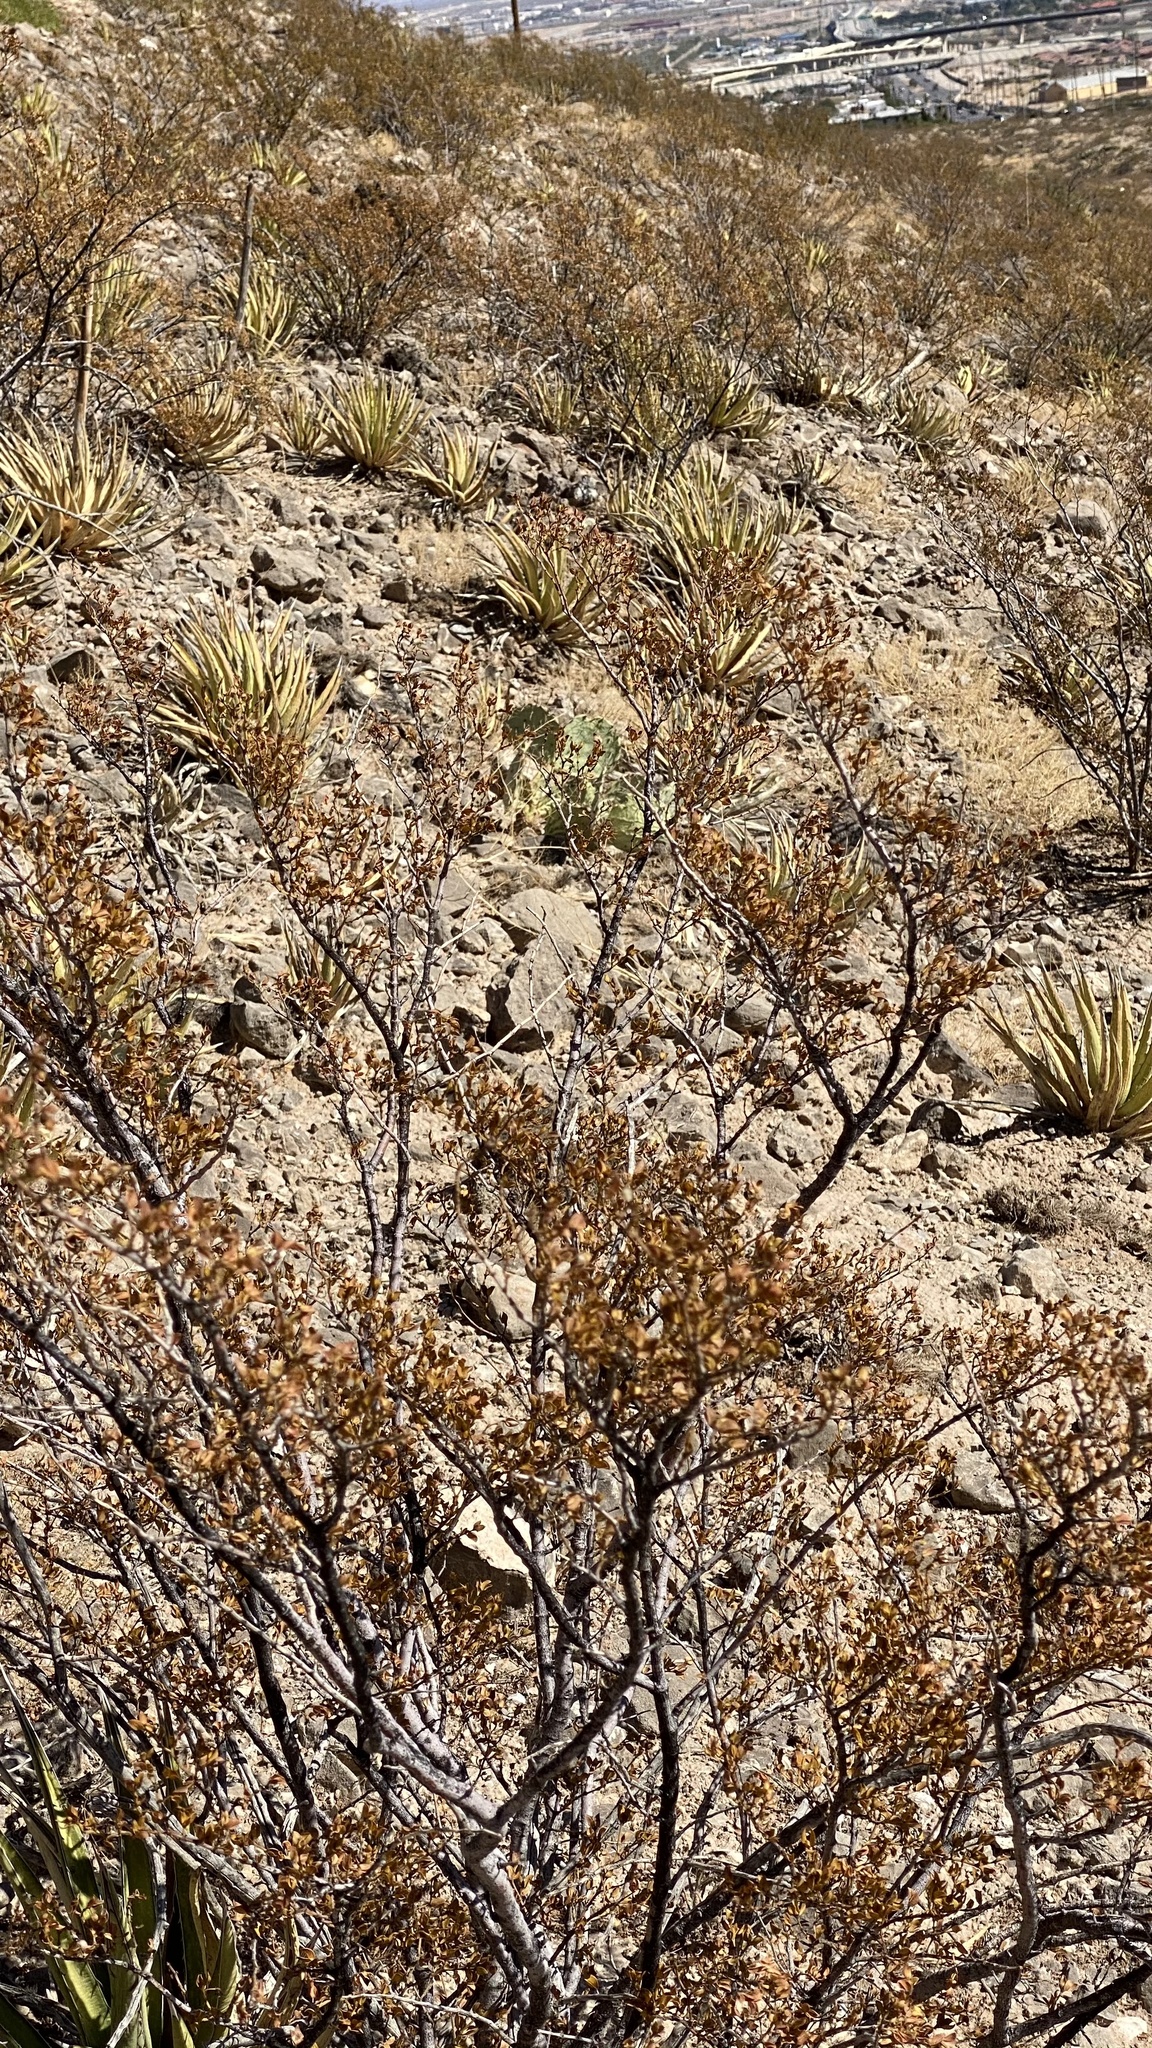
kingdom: Plantae
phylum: Tracheophyta
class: Magnoliopsida
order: Zygophyllales
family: Zygophyllaceae
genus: Larrea
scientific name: Larrea tridentata
